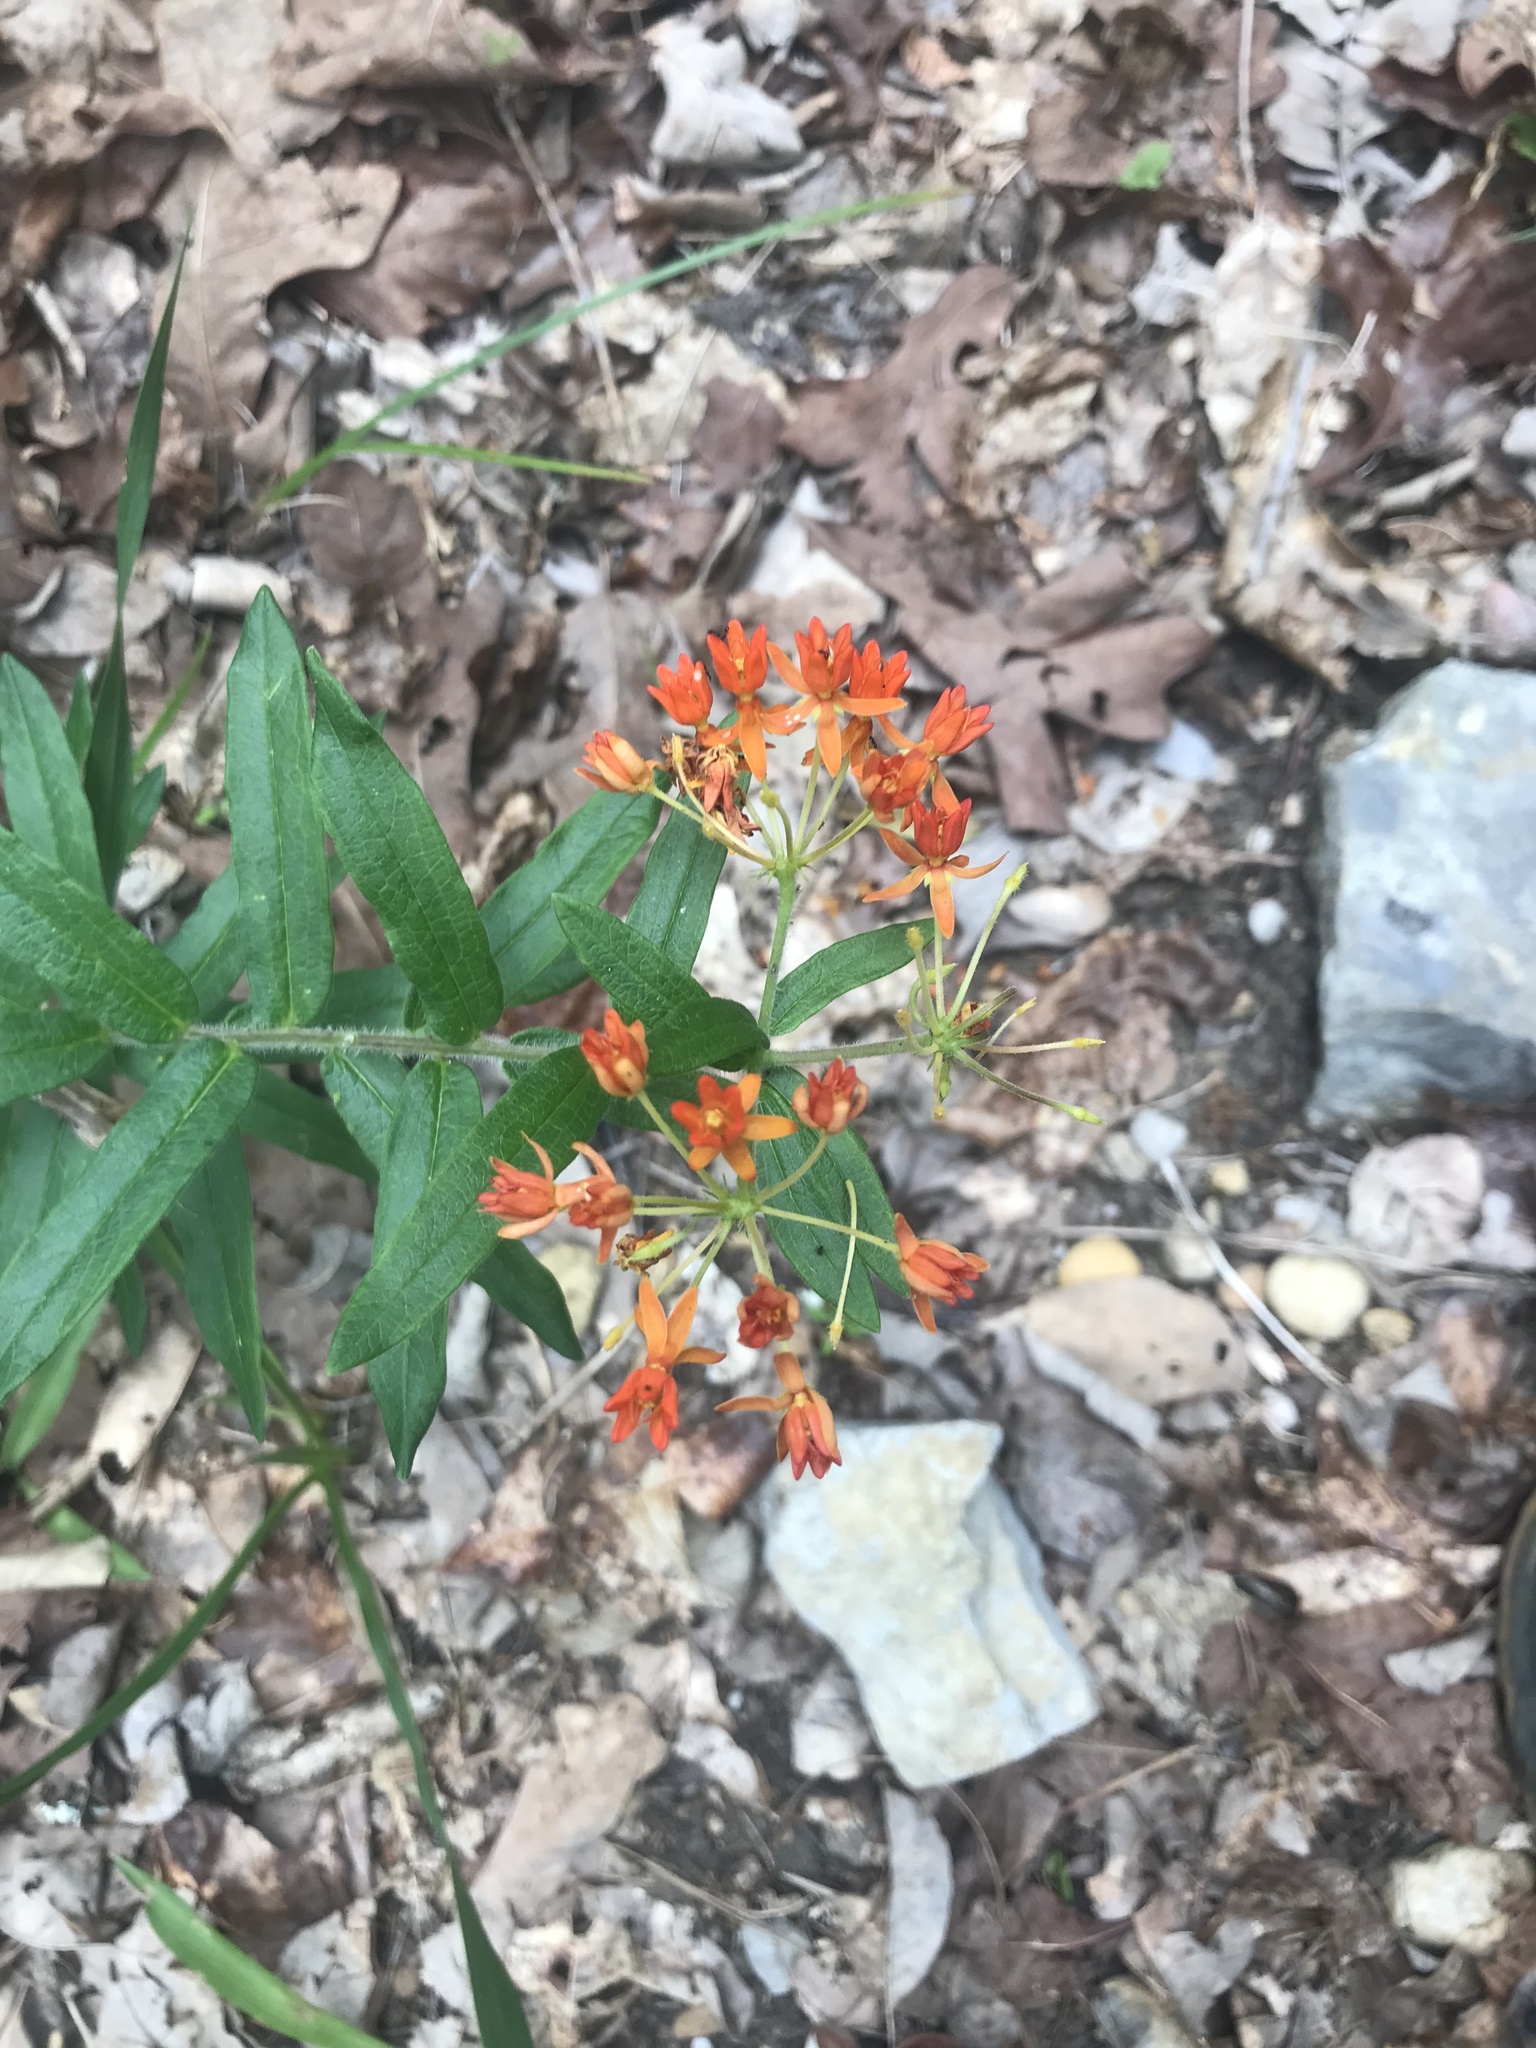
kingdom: Plantae
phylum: Tracheophyta
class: Magnoliopsida
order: Gentianales
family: Apocynaceae
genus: Asclepias
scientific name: Asclepias tuberosa
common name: Butterfly milkweed
